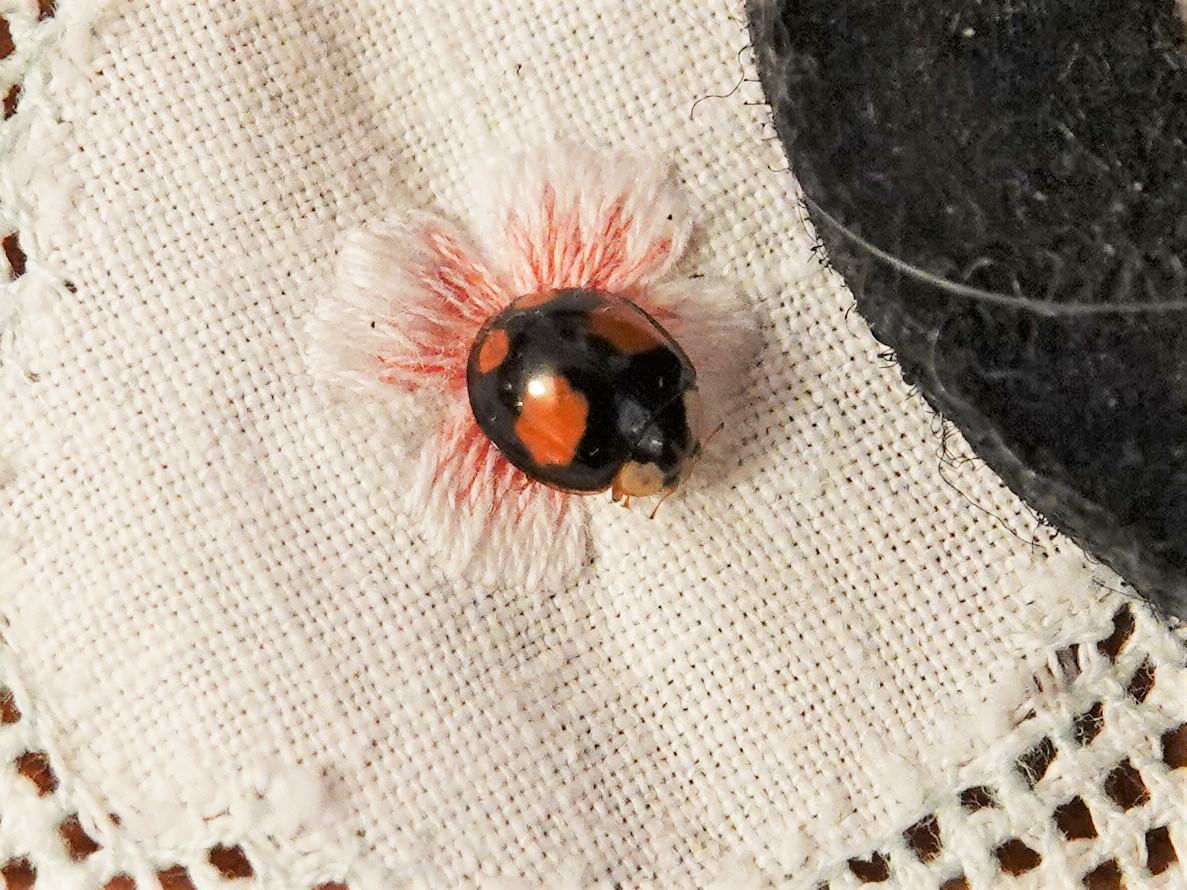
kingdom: Animalia
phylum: Arthropoda
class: Insecta
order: Coleoptera
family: Coccinellidae
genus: Harmonia
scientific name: Harmonia axyridis
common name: Harlequin ladybird
